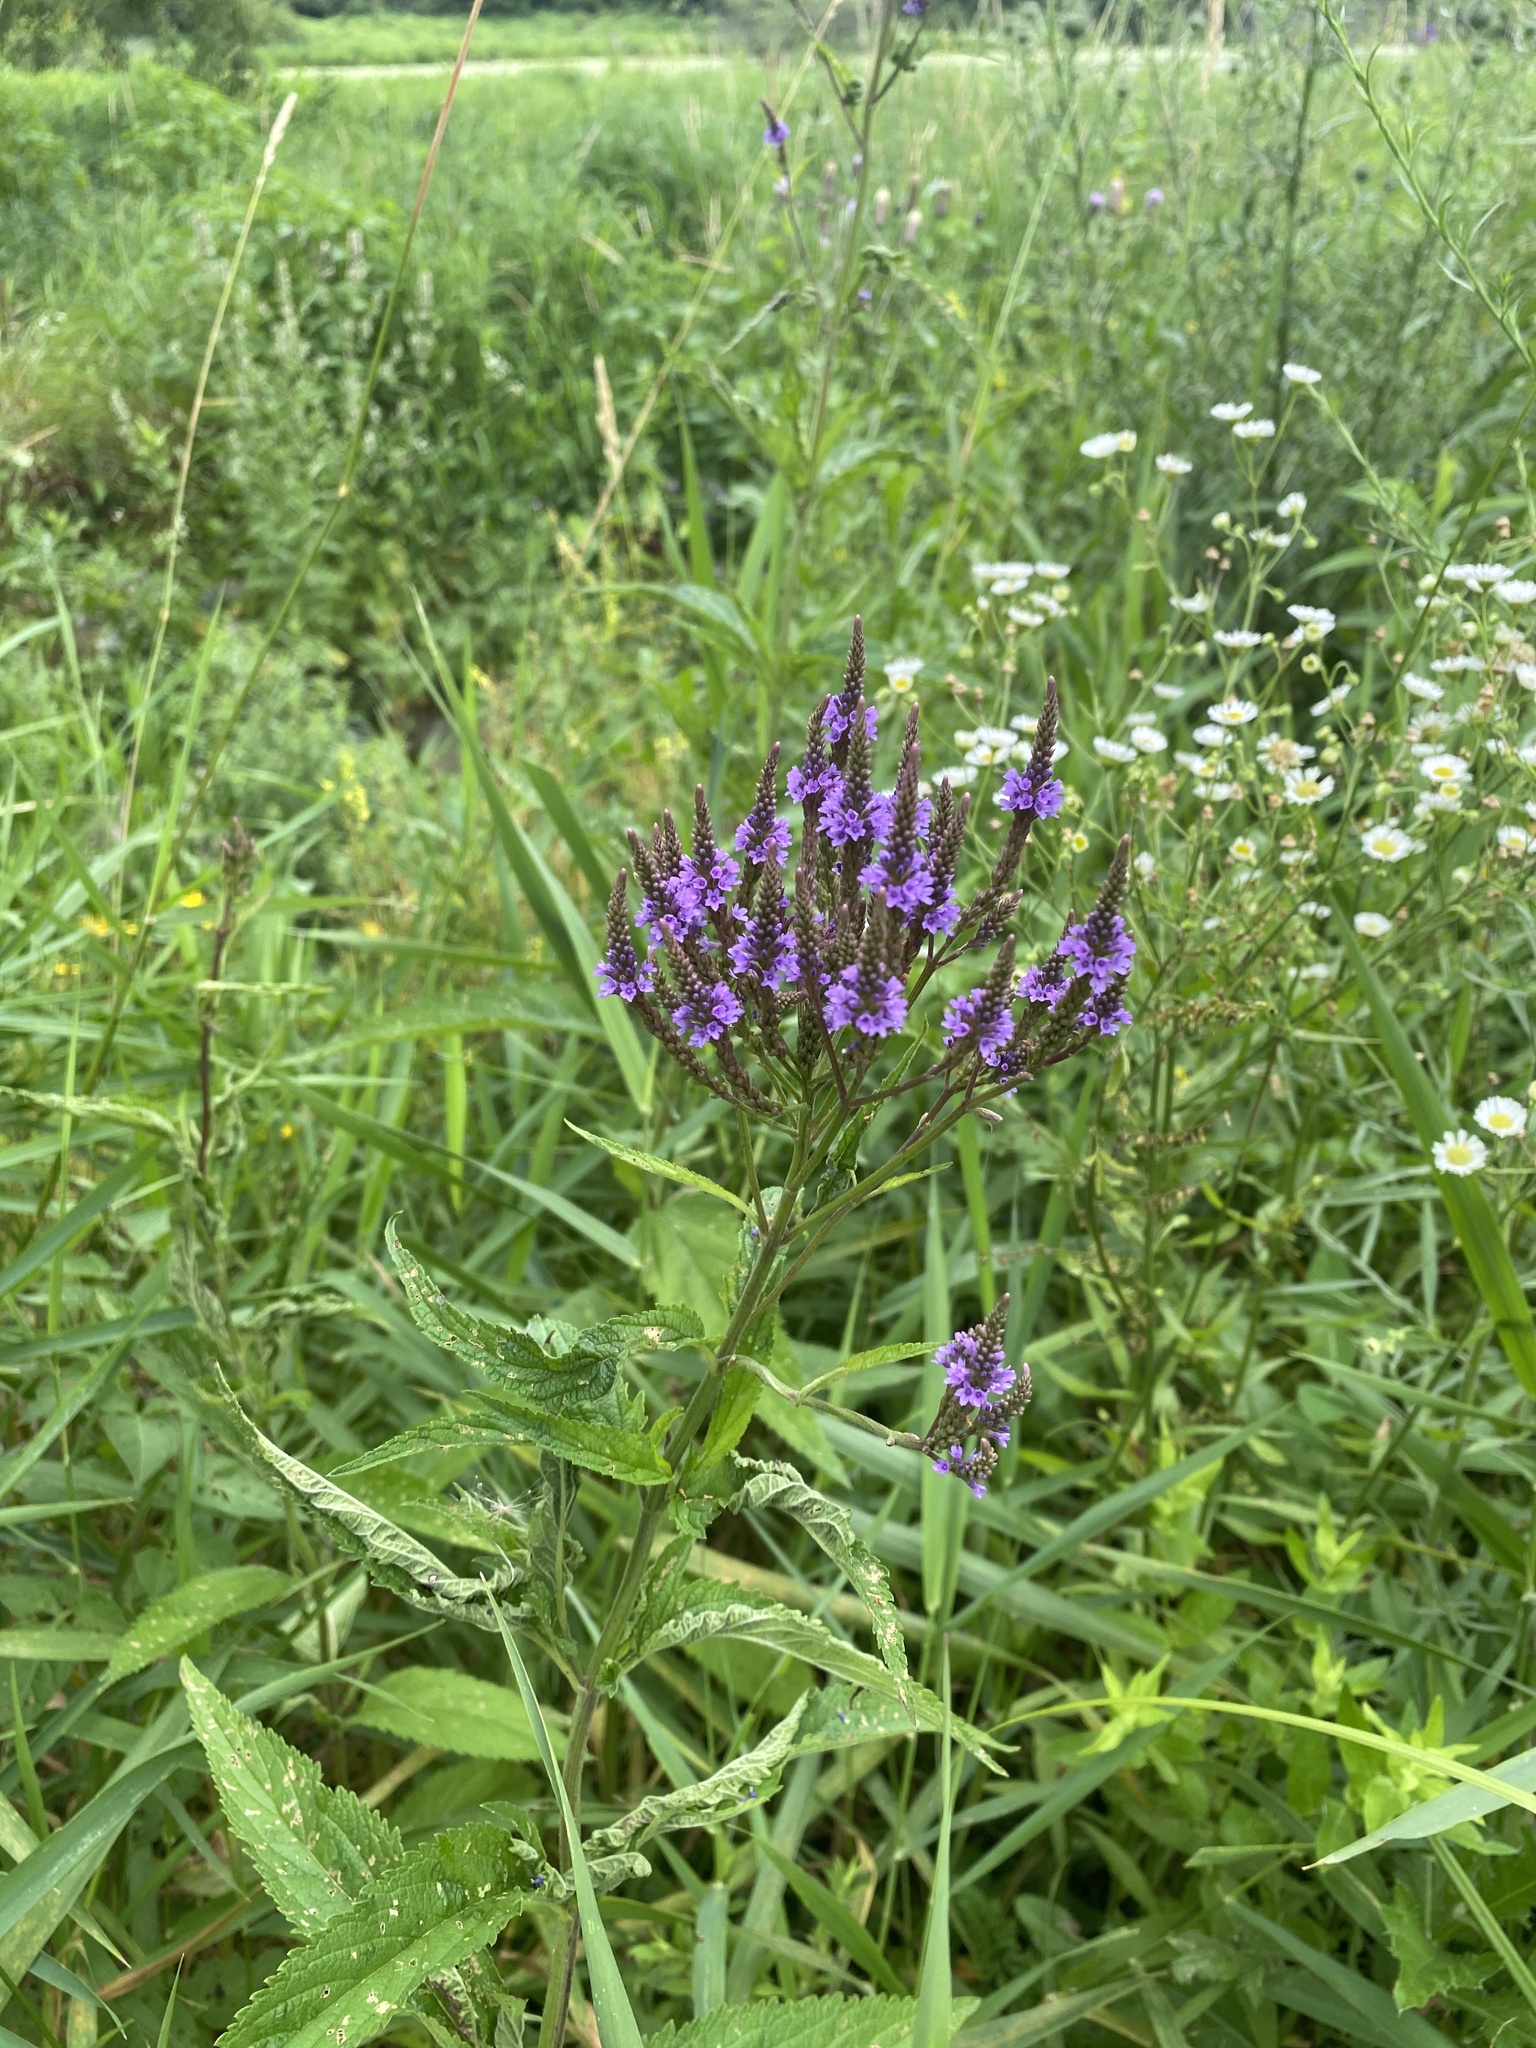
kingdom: Plantae
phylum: Tracheophyta
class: Magnoliopsida
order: Lamiales
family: Verbenaceae
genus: Verbena
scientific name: Verbena hastata
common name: American blue vervain
